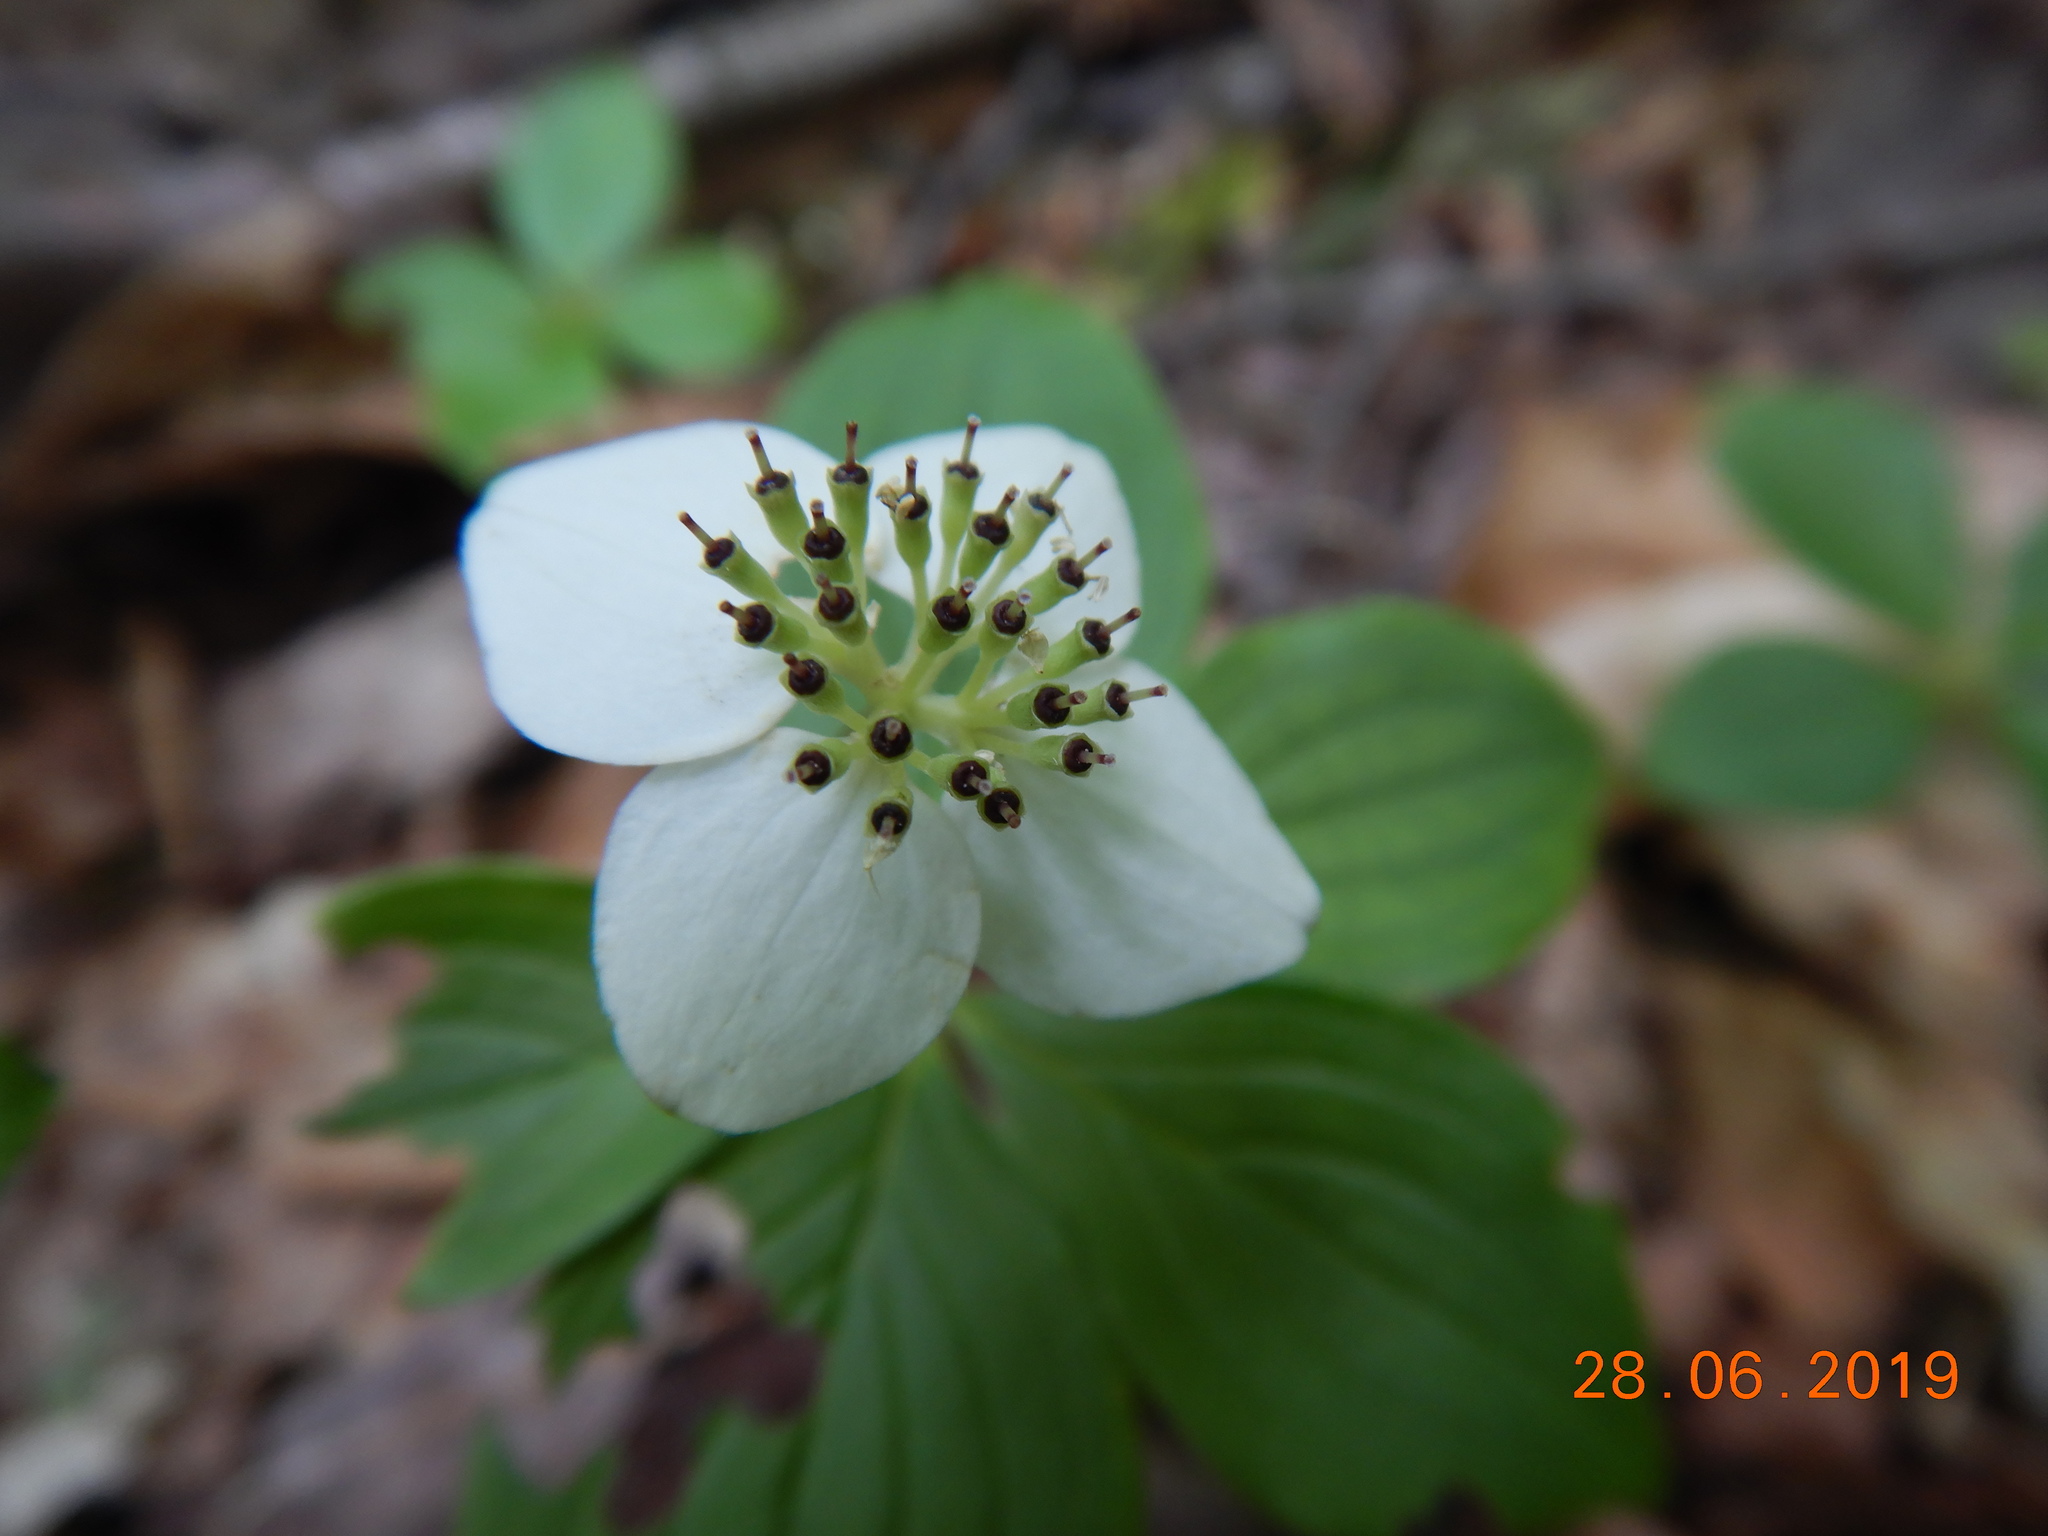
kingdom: Plantae
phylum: Tracheophyta
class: Magnoliopsida
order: Cornales
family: Cornaceae
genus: Cornus
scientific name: Cornus canadensis
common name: Creeping dogwood
